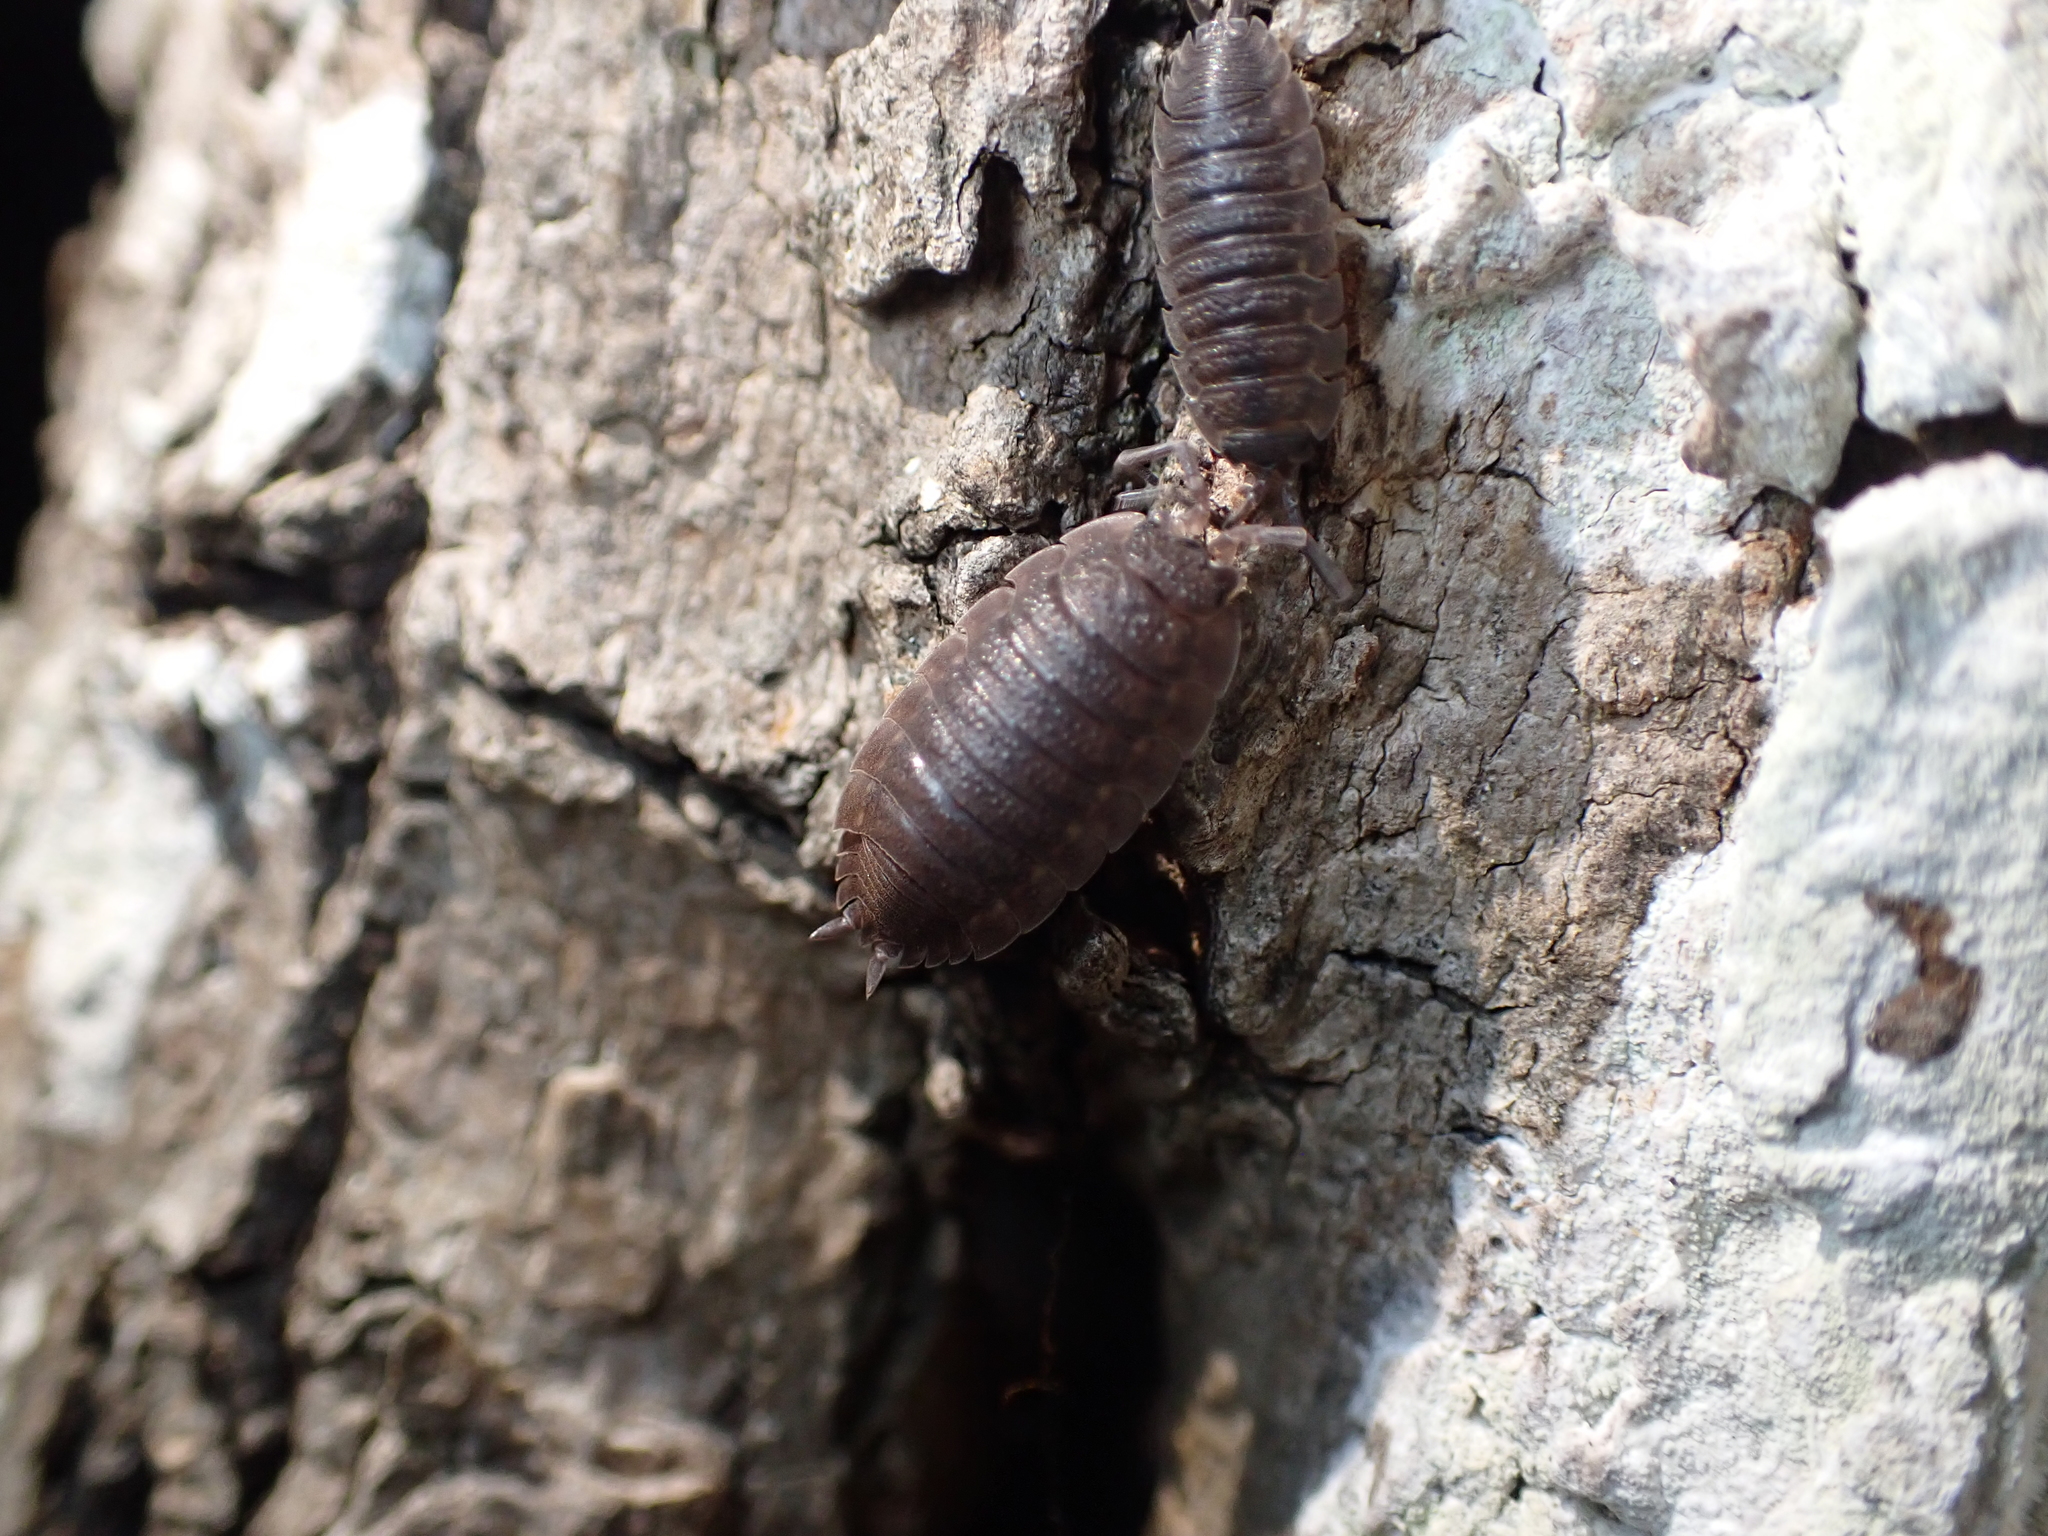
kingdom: Animalia
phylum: Arthropoda
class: Malacostraca
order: Isopoda
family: Porcellionidae
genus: Porcellio
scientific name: Porcellio scaber
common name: Common rough woodlouse
